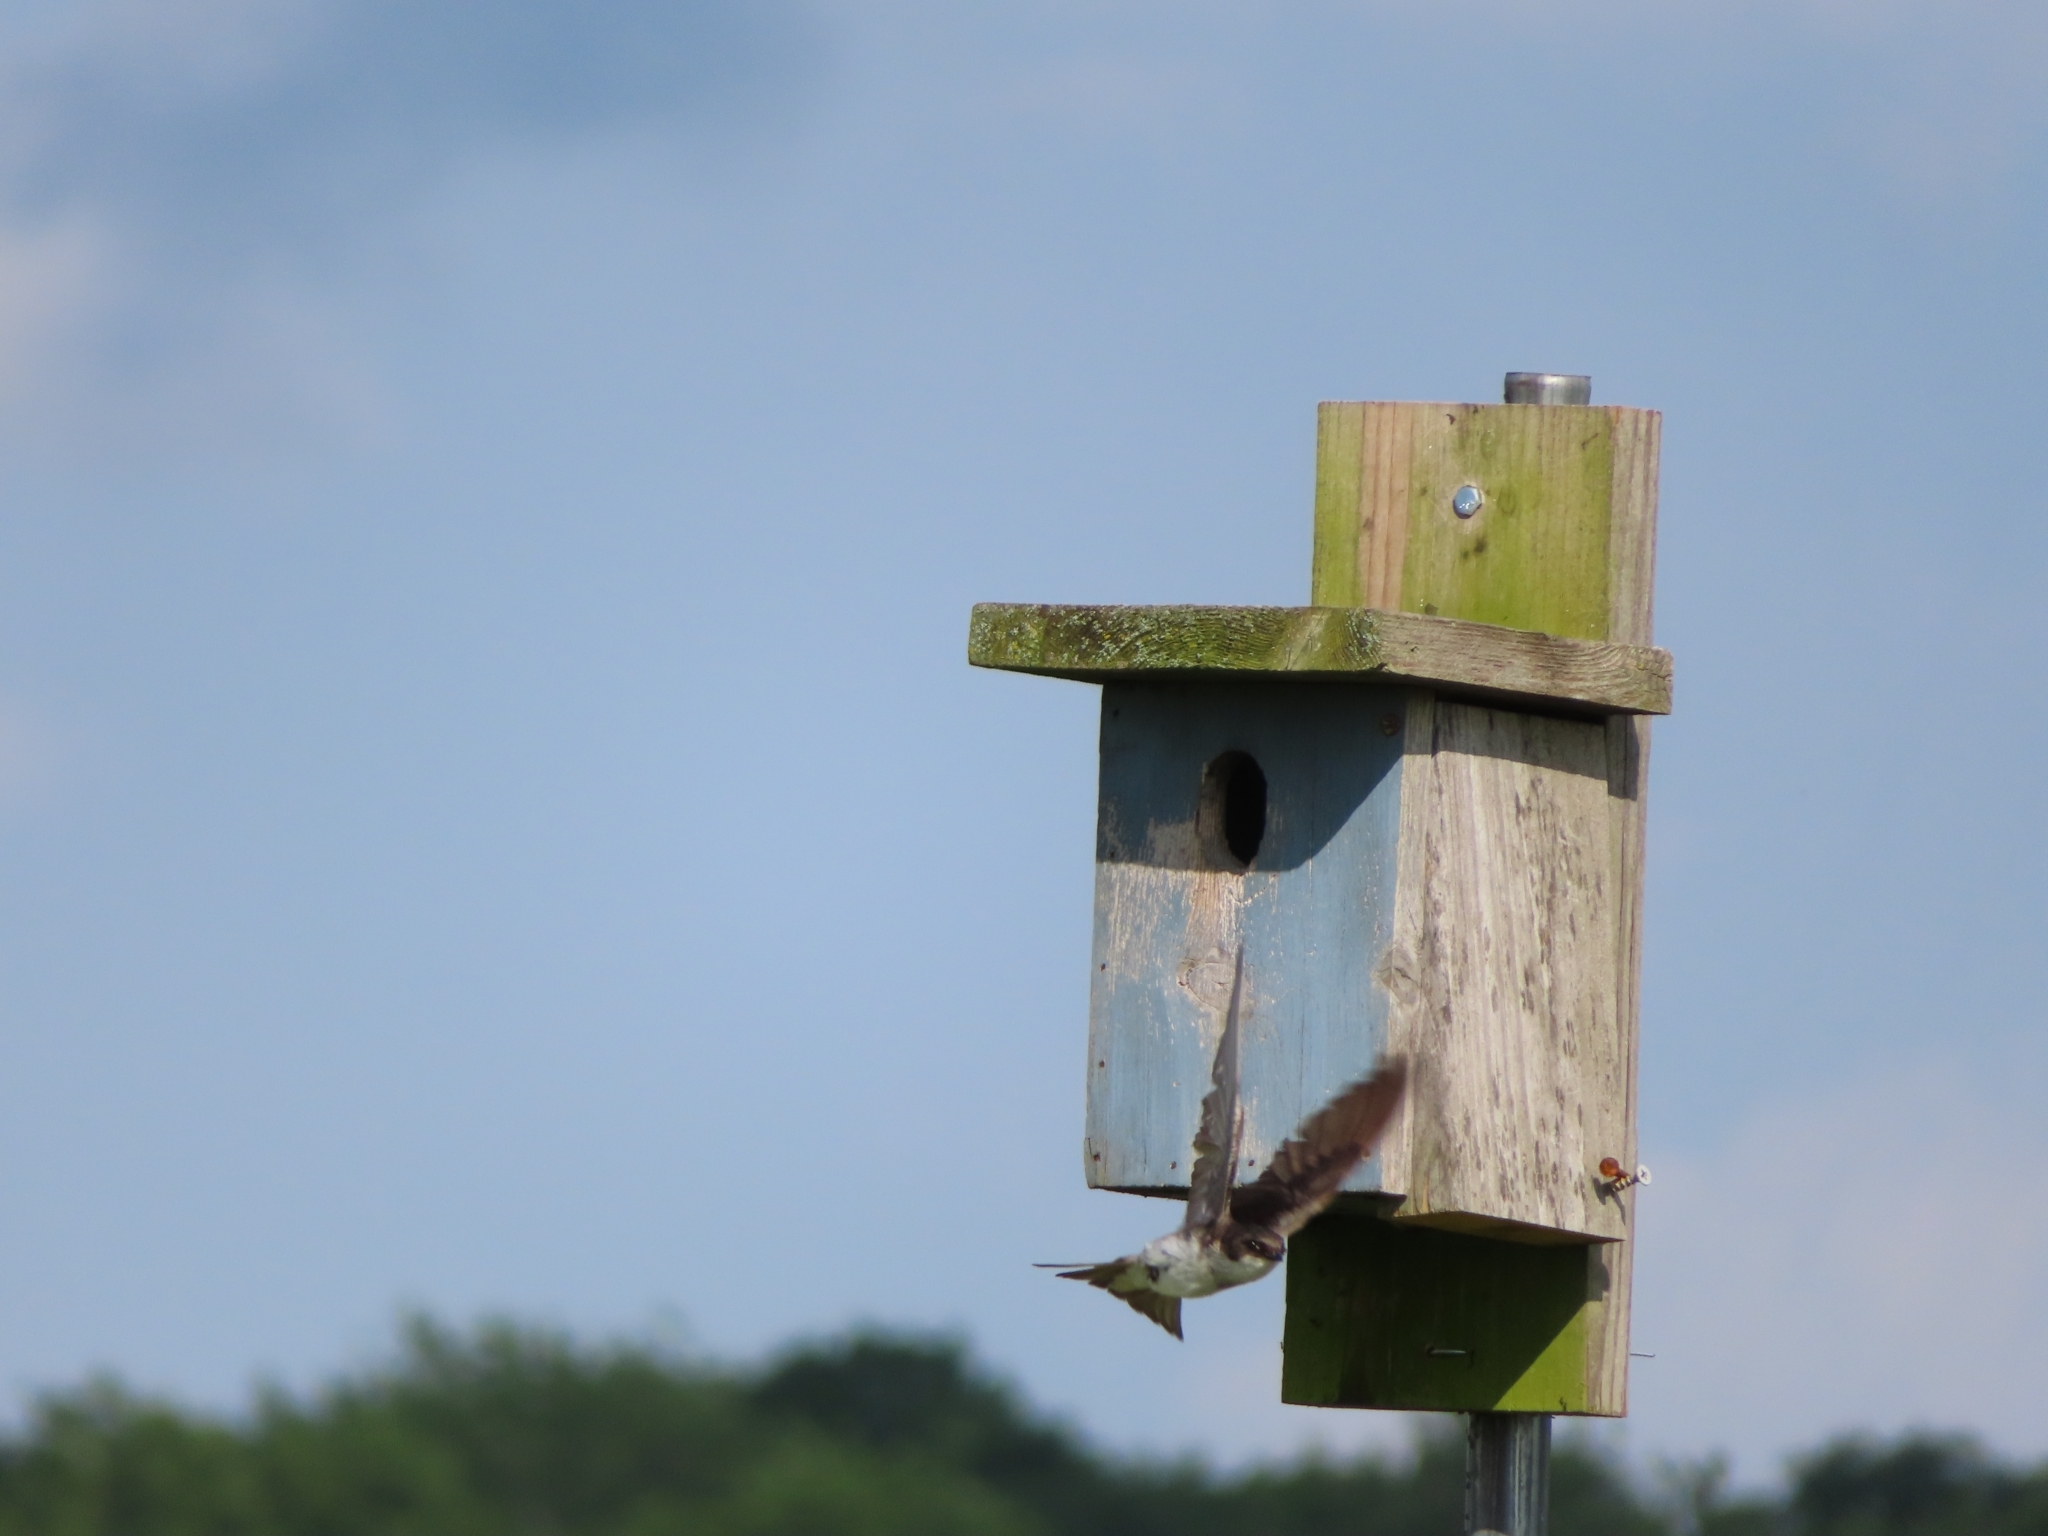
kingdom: Animalia
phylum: Chordata
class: Aves
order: Passeriformes
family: Hirundinidae
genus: Tachycineta
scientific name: Tachycineta bicolor
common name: Tree swallow
